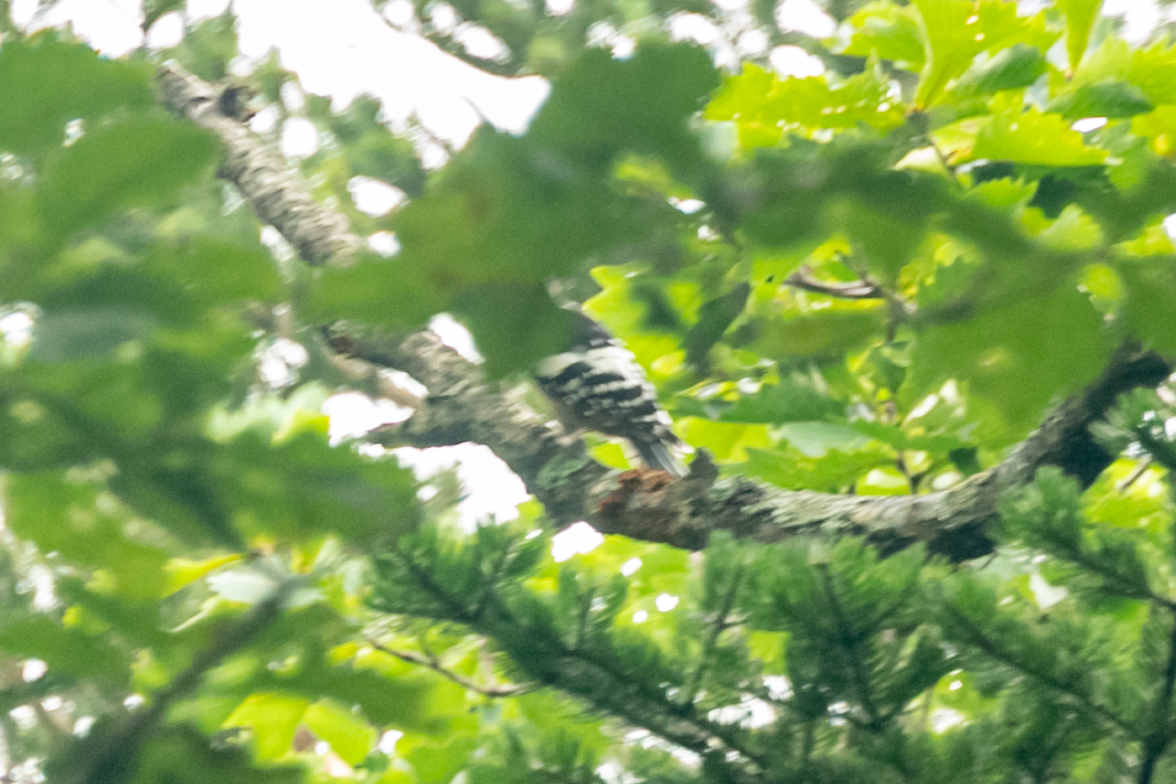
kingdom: Animalia
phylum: Chordata
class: Aves
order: Piciformes
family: Picidae
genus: Dendrocopos
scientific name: Dendrocopos leucotos
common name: White-backed woodpecker
